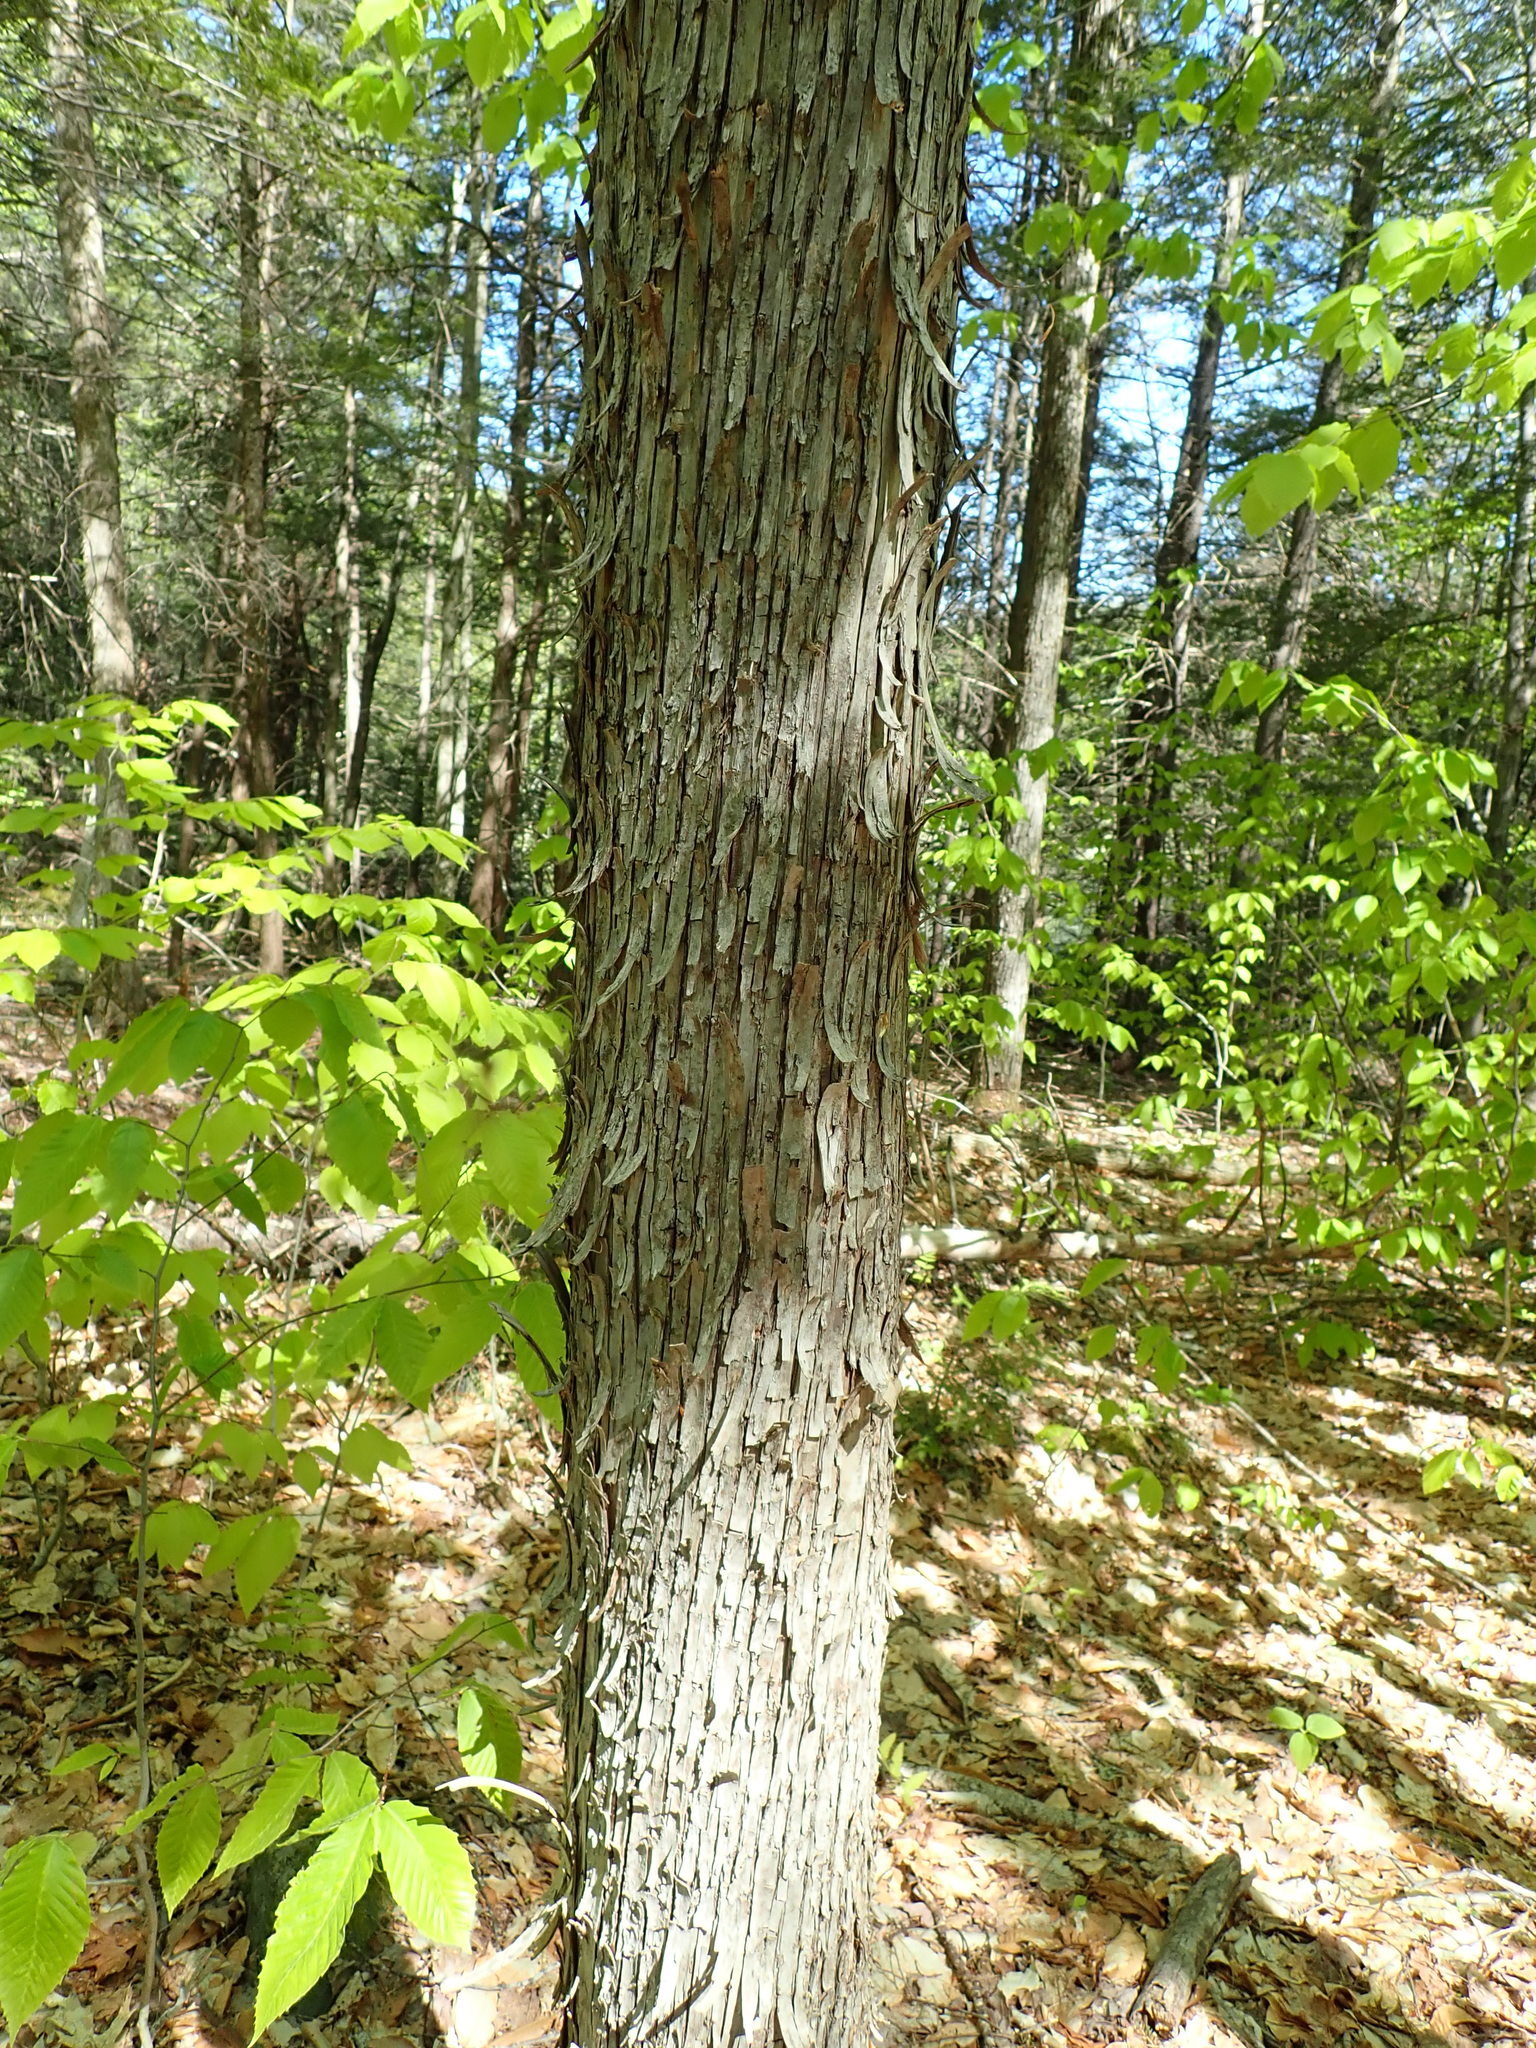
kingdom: Plantae
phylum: Tracheophyta
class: Magnoliopsida
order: Fagales
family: Betulaceae
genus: Ostrya
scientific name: Ostrya virginiana
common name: Ironwood
